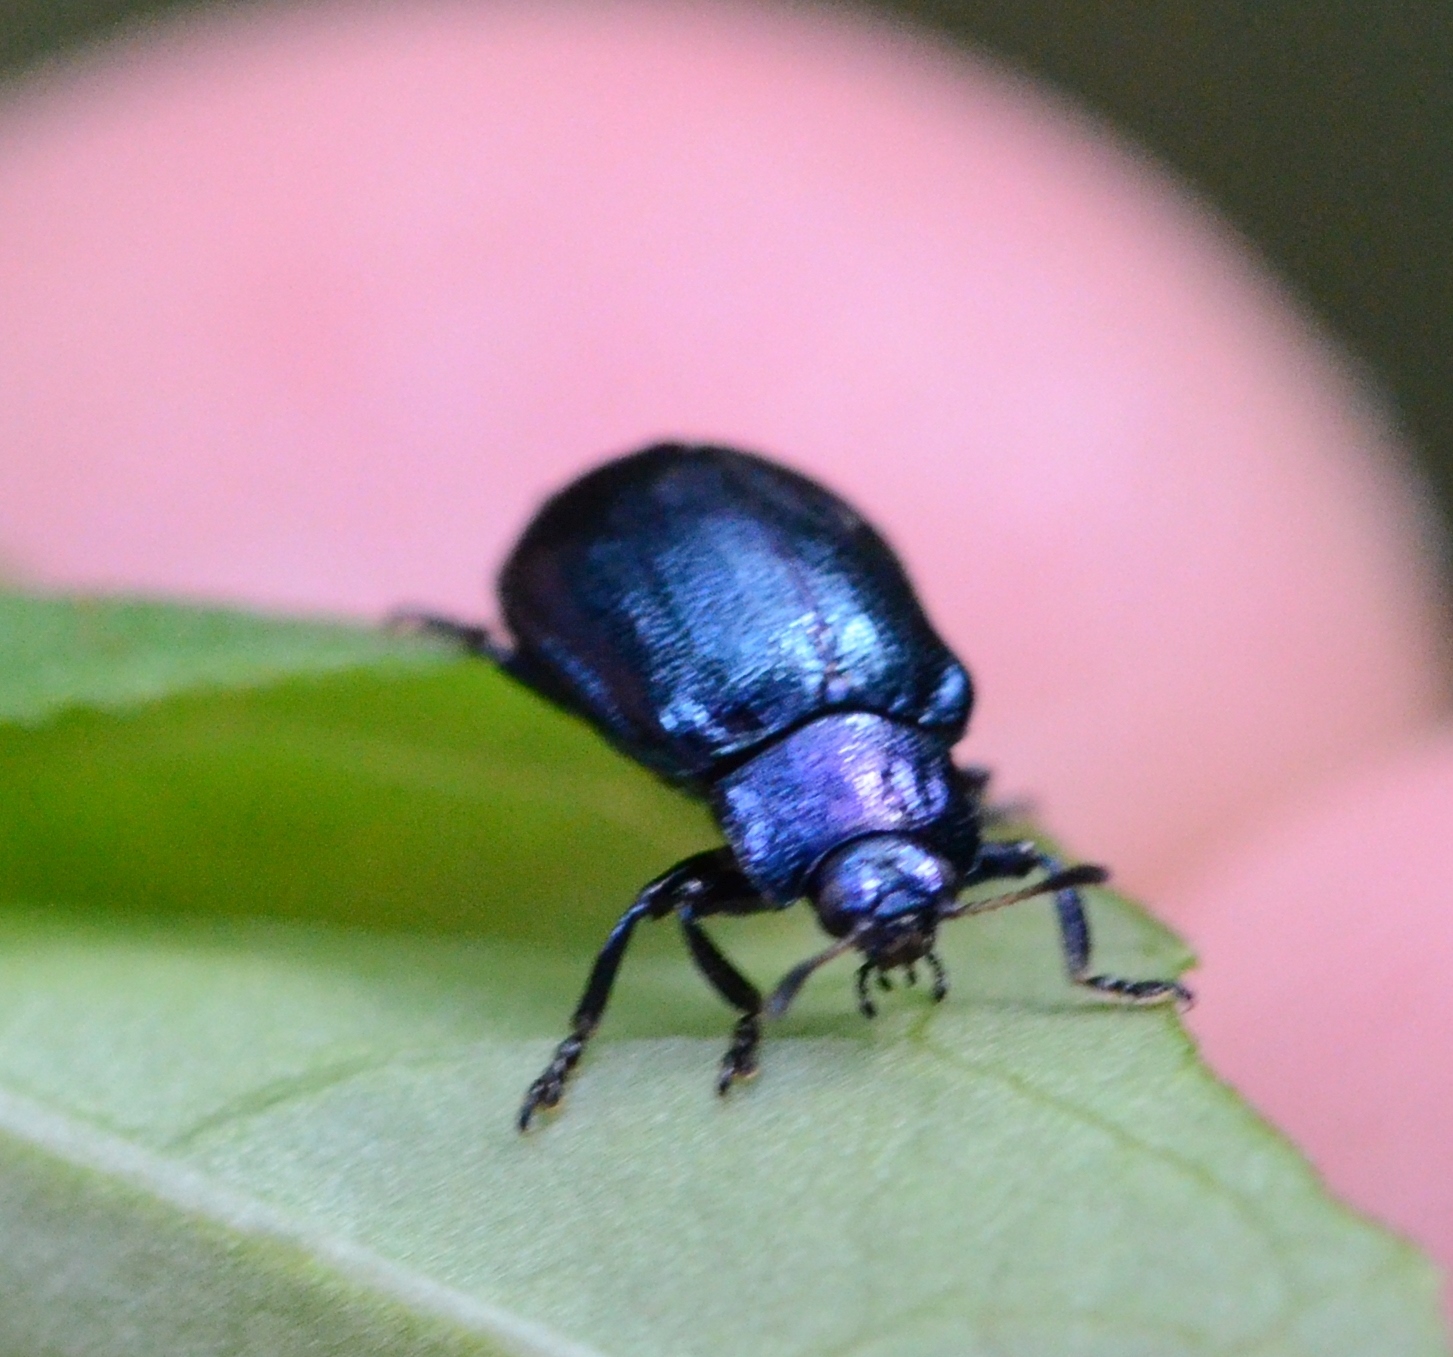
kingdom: Animalia
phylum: Arthropoda
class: Insecta
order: Coleoptera
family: Chrysomelidae
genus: Plagiosterna
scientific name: Plagiosterna aenea
